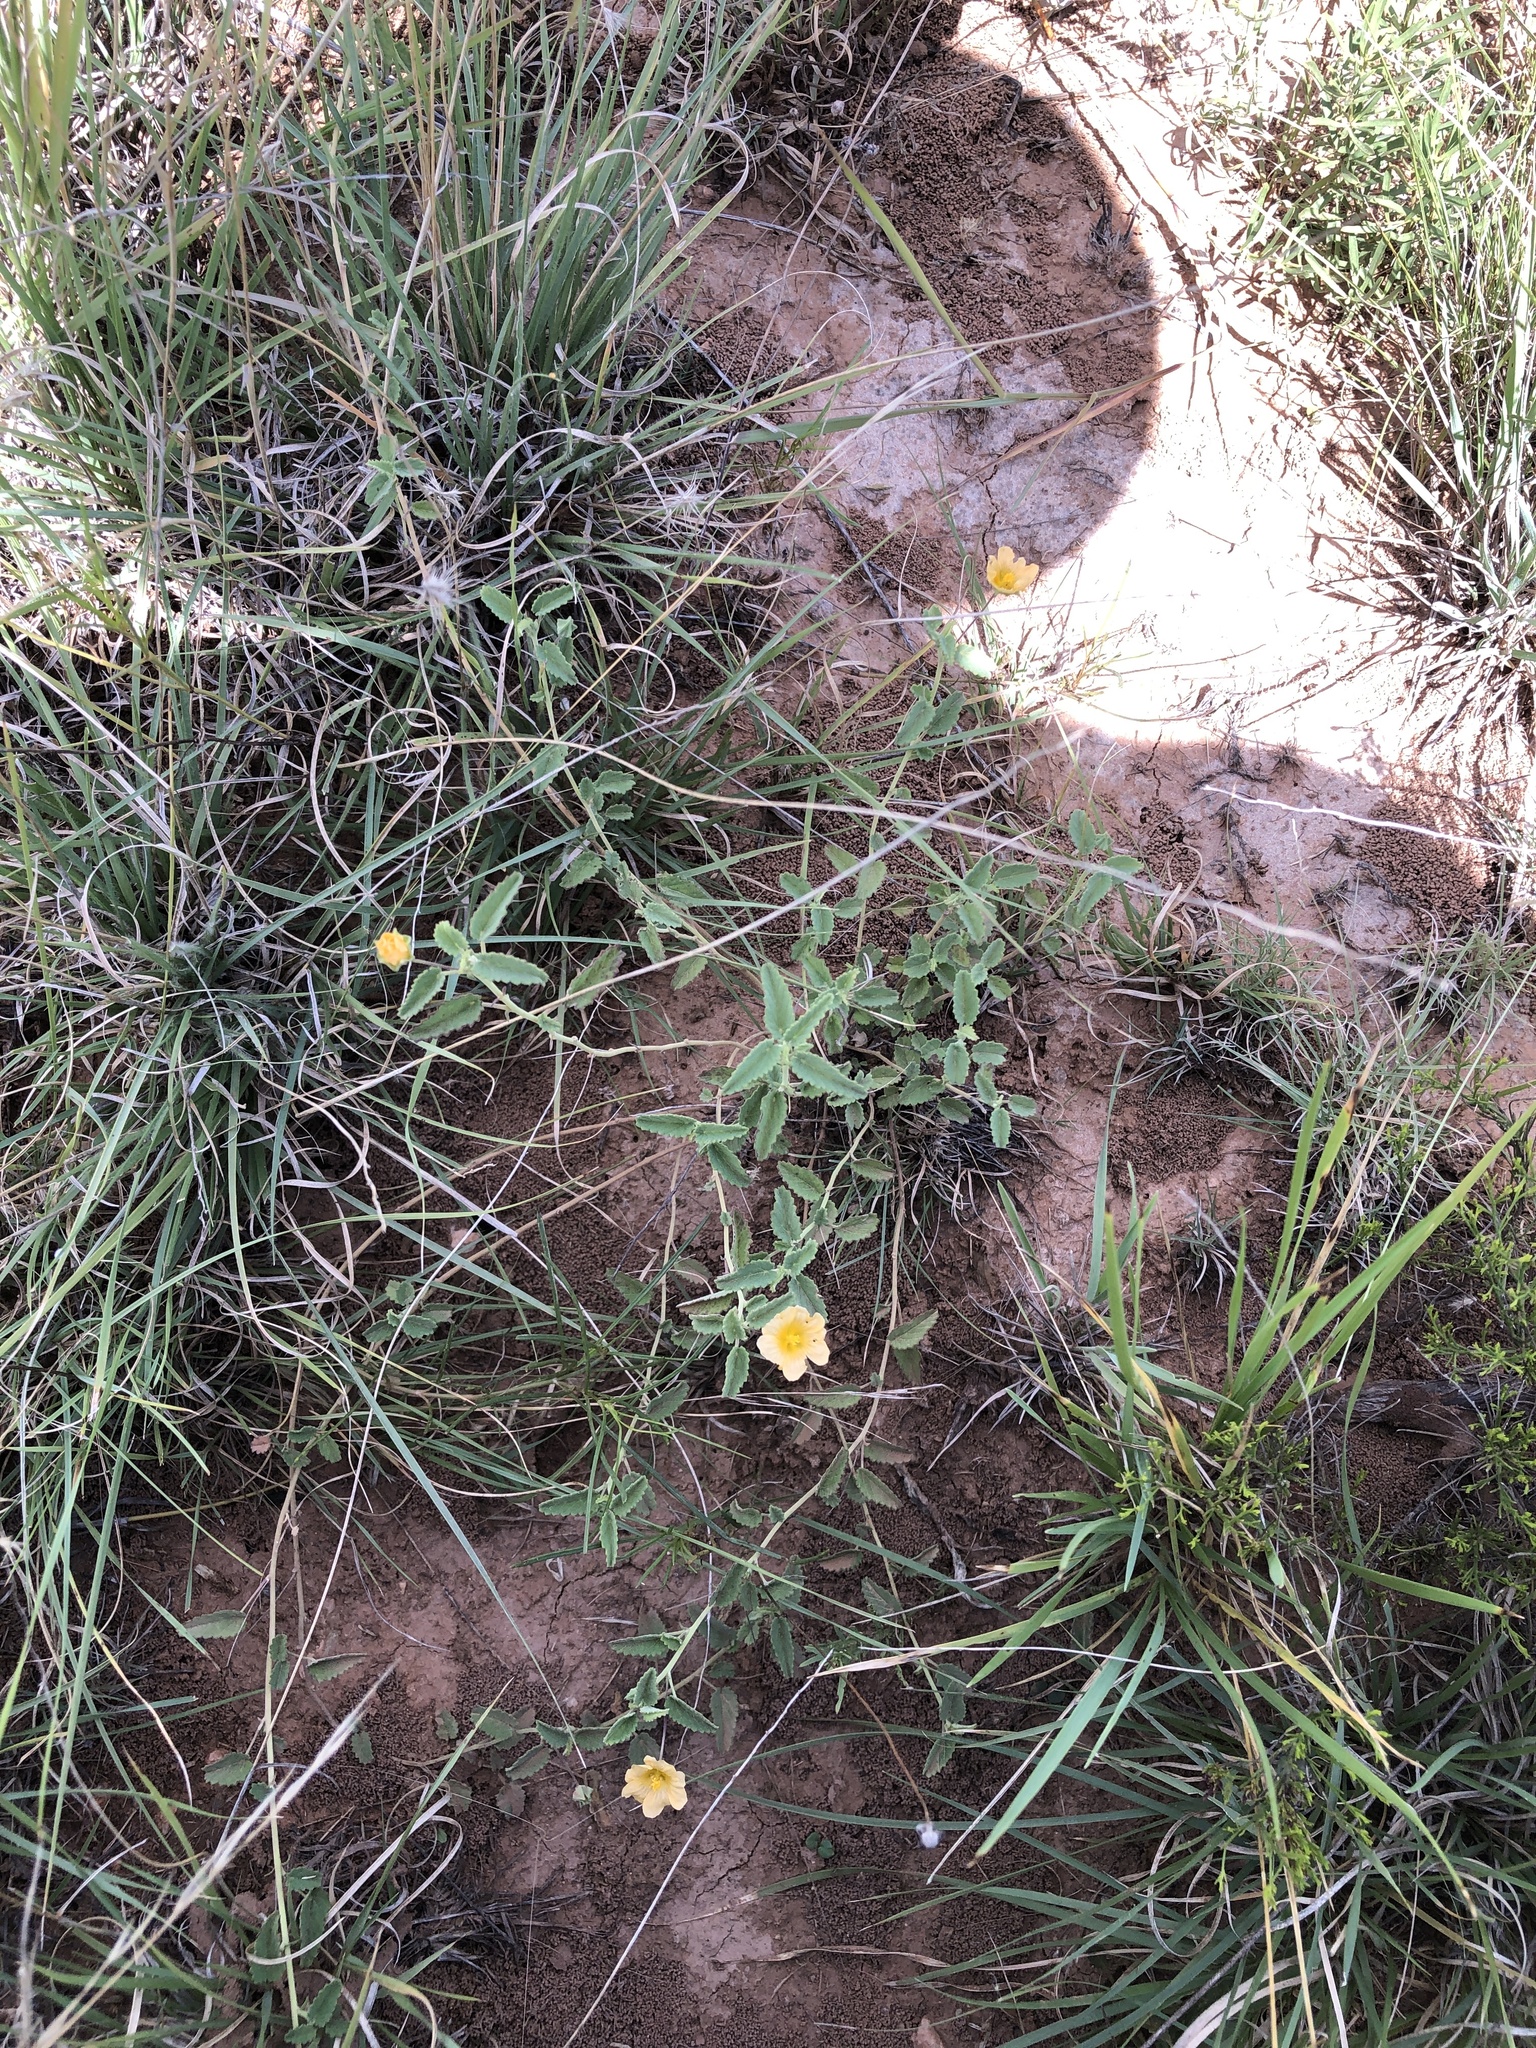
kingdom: Plantae
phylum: Tracheophyta
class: Magnoliopsida
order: Malvales
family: Malvaceae
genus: Sida
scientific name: Sida abutilifolia
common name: Spreading fanpetals
